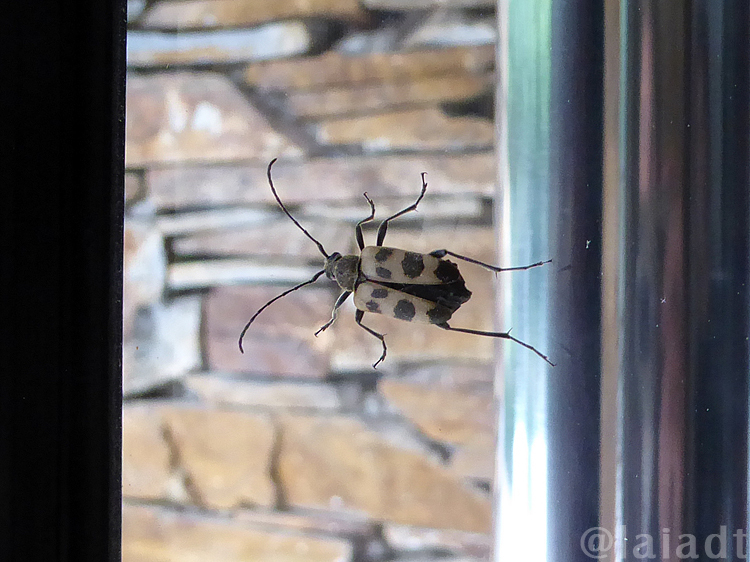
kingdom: Animalia
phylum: Arthropoda
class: Insecta
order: Coleoptera
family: Cerambycidae
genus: Pachytodes
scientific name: Pachytodes cerambyciformis
